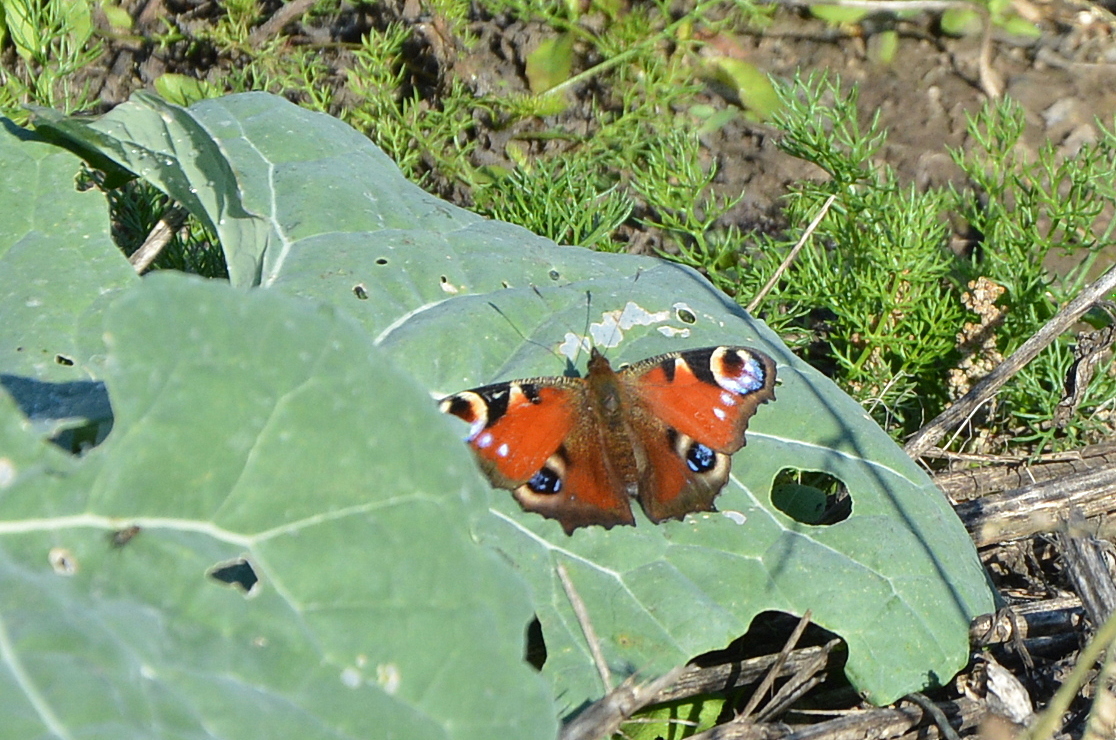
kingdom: Animalia
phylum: Arthropoda
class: Insecta
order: Lepidoptera
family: Nymphalidae
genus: Aglais
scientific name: Aglais io
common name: Peacock
